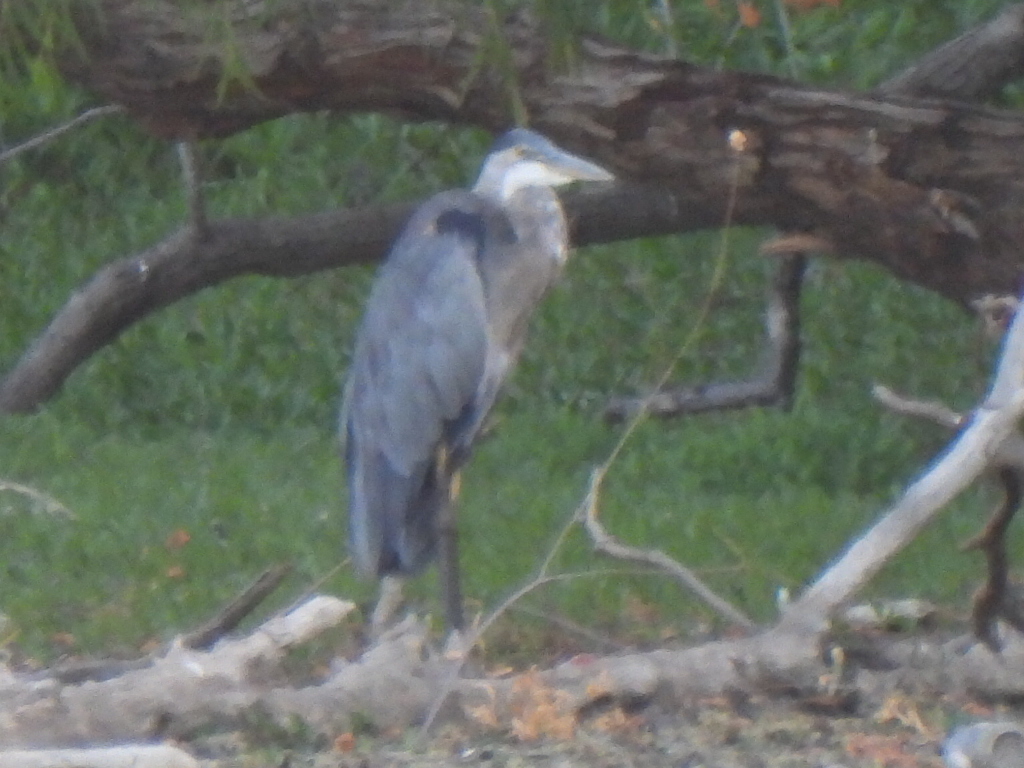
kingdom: Animalia
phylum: Chordata
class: Aves
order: Pelecaniformes
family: Ardeidae
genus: Ardea
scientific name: Ardea herodias
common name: Great blue heron
